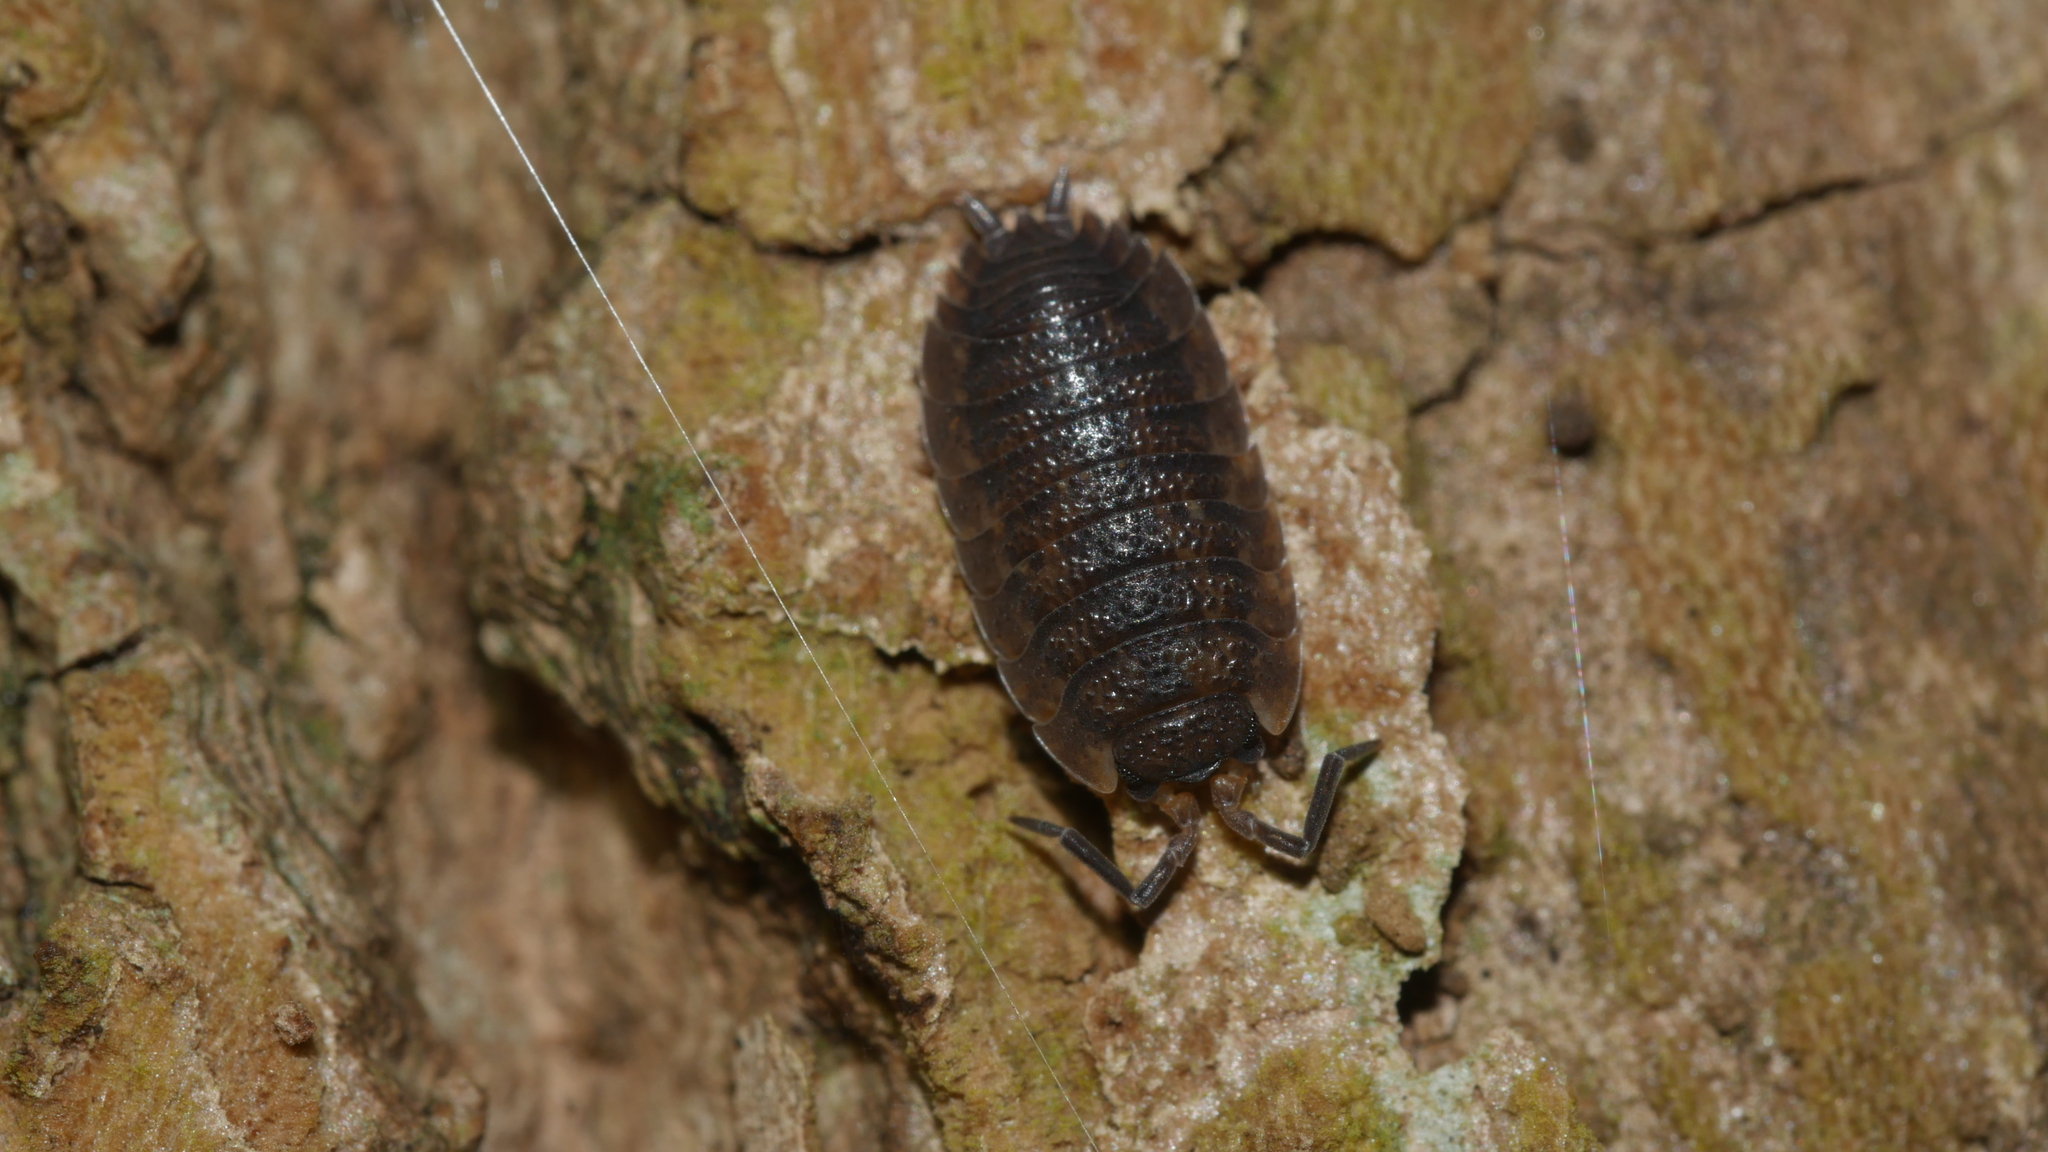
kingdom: Animalia
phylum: Arthropoda
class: Malacostraca
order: Isopoda
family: Porcellionidae
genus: Porcellio
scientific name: Porcellio scaber
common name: Common rough woodlouse
